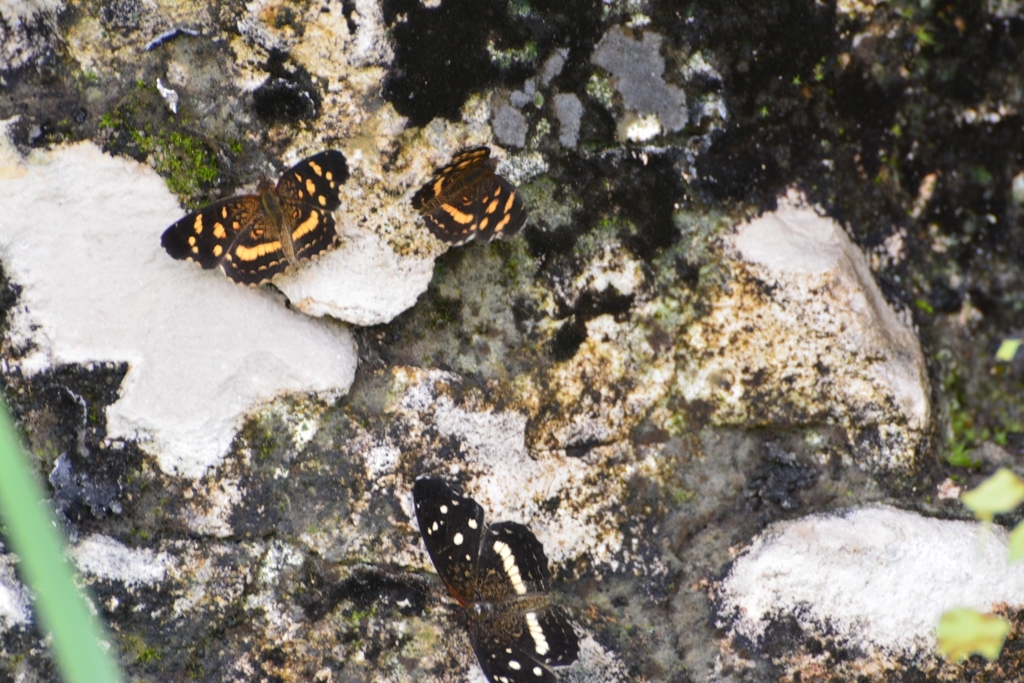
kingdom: Animalia
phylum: Arthropoda
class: Insecta
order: Lepidoptera
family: Nymphalidae
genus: Anthanassa
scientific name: Anthanassa tulcis
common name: Pale-banded crescent
